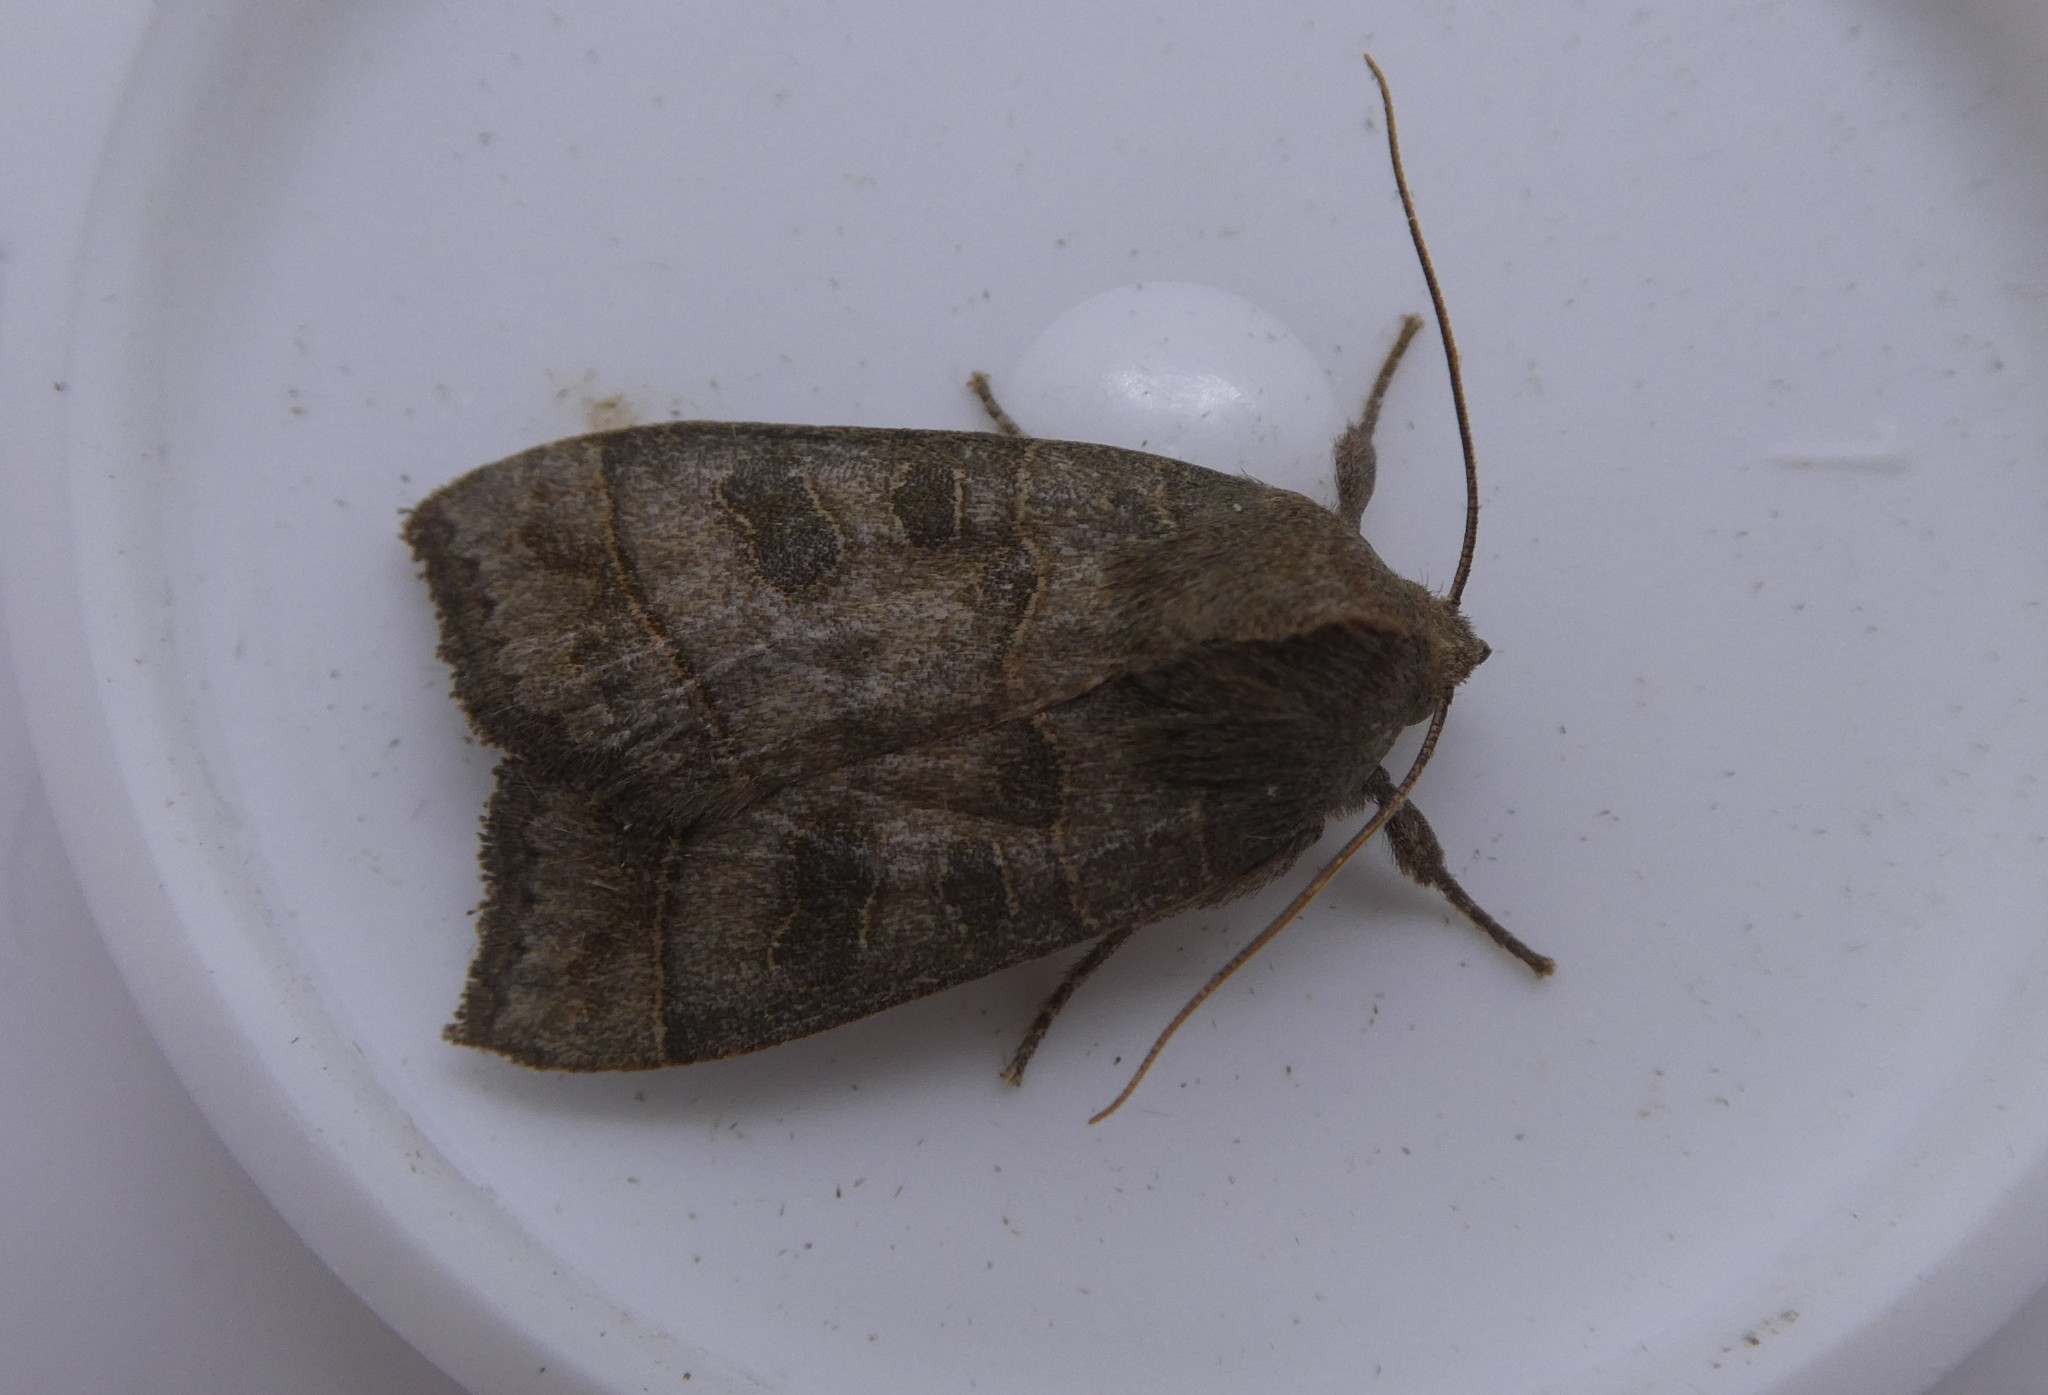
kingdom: Animalia
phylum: Arthropoda
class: Insecta
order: Lepidoptera
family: Noctuidae
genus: Ipimorpha
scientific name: Ipimorpha pleonectusa
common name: Even-lined sallow
